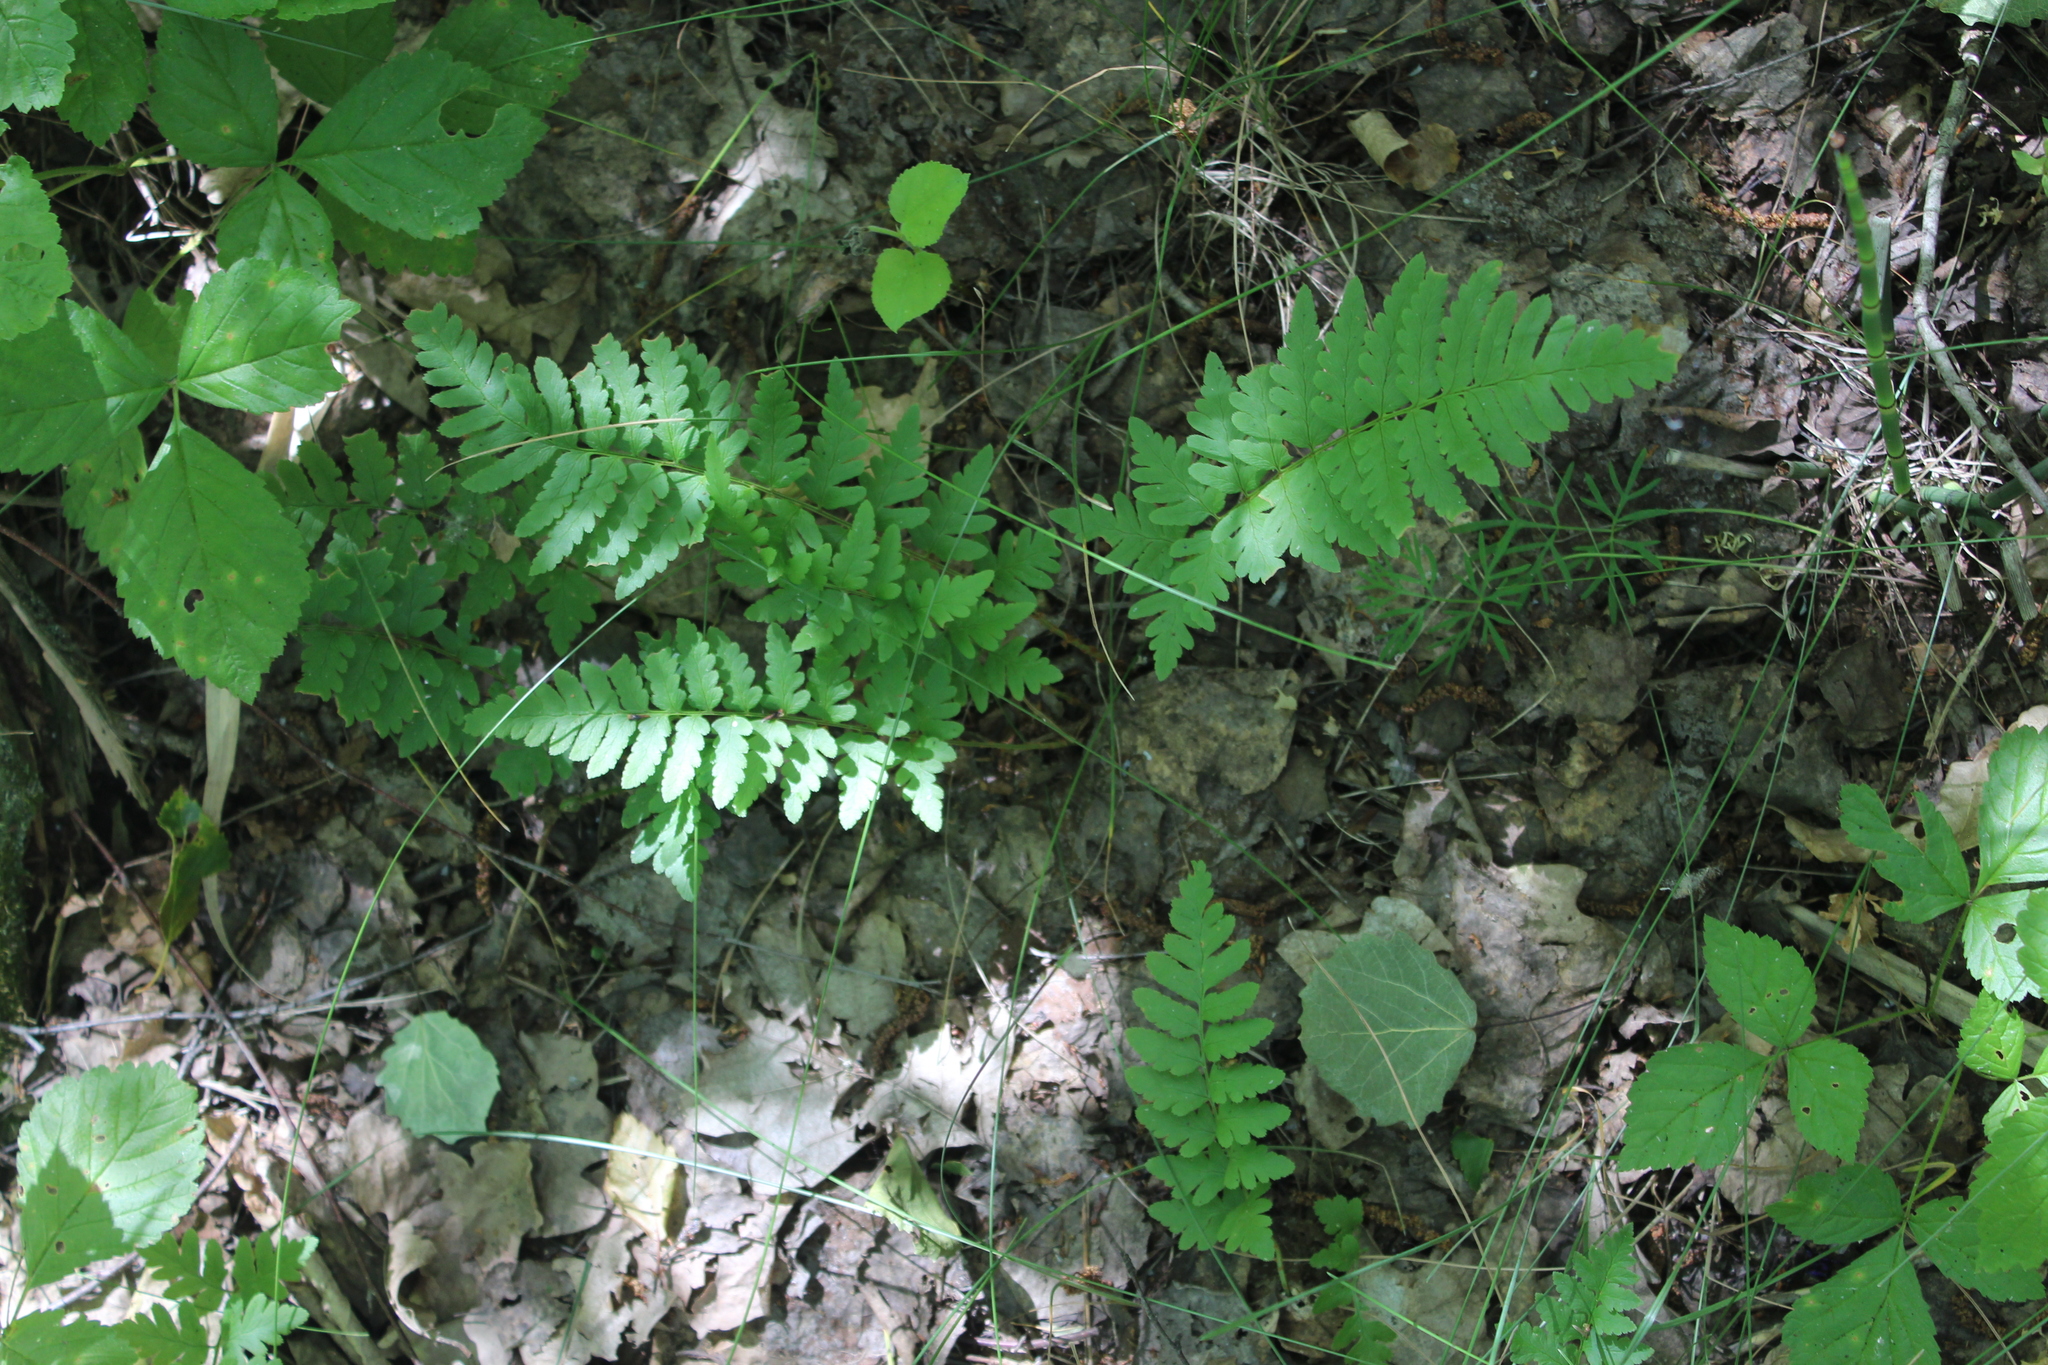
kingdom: Plantae
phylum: Tracheophyta
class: Polypodiopsida
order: Polypodiales
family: Dryopteridaceae
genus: Dryopteris
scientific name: Dryopteris cristata
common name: Crested wood fern
